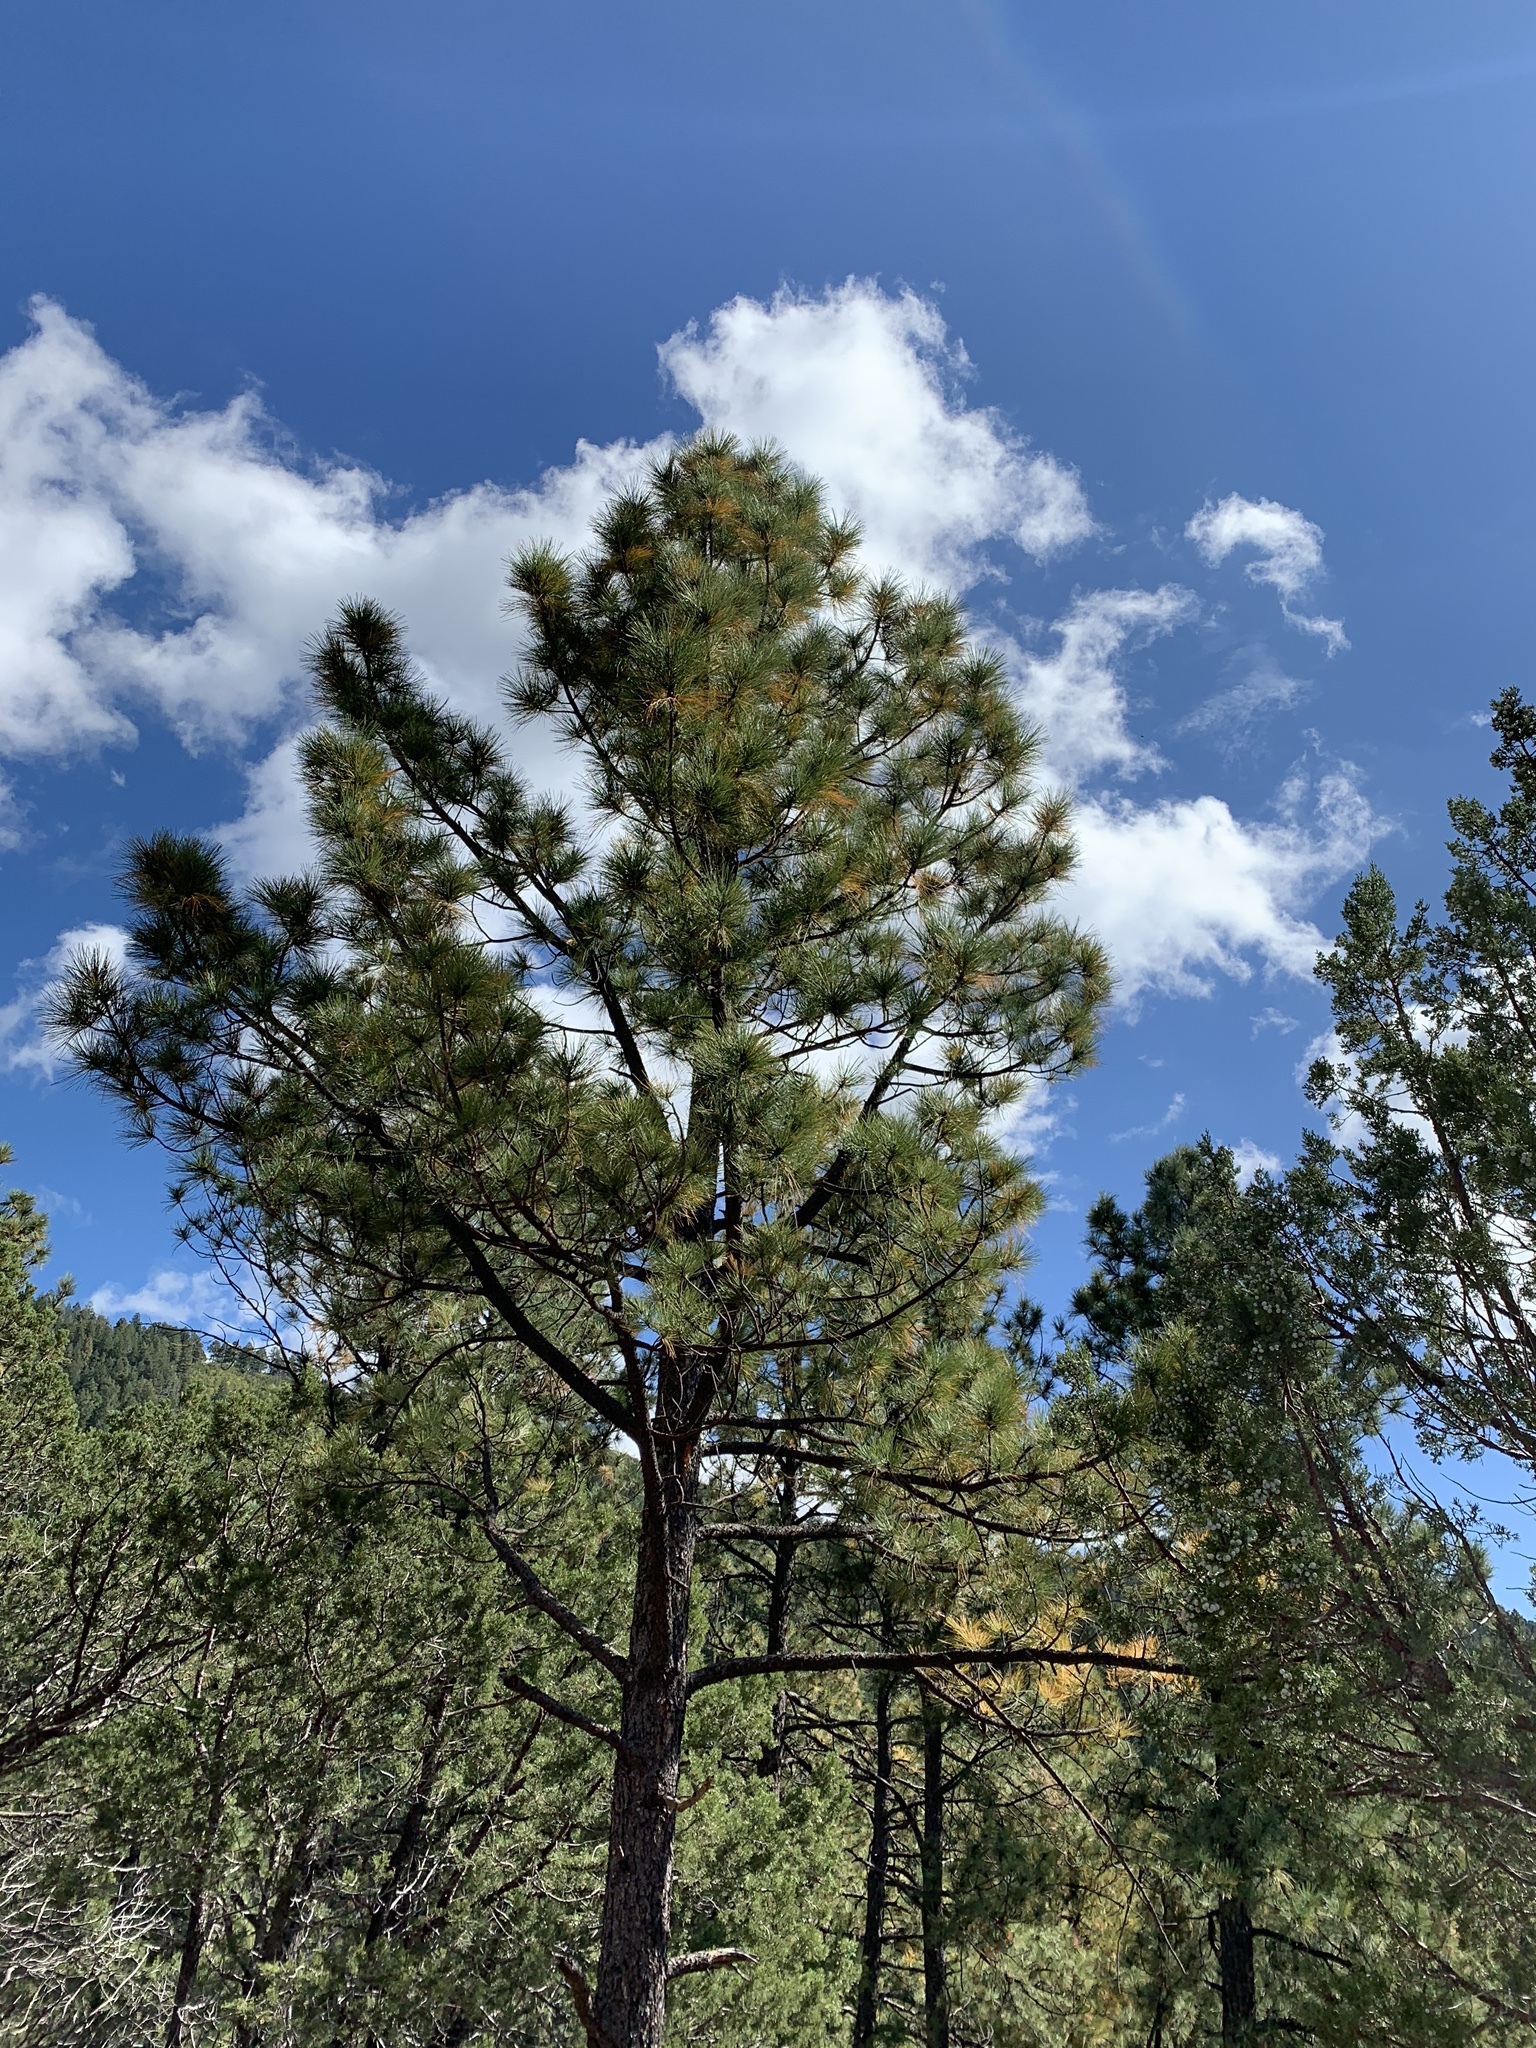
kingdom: Plantae
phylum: Tracheophyta
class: Pinopsida
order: Pinales
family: Pinaceae
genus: Pinus
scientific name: Pinus ponderosa
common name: Western yellow-pine
